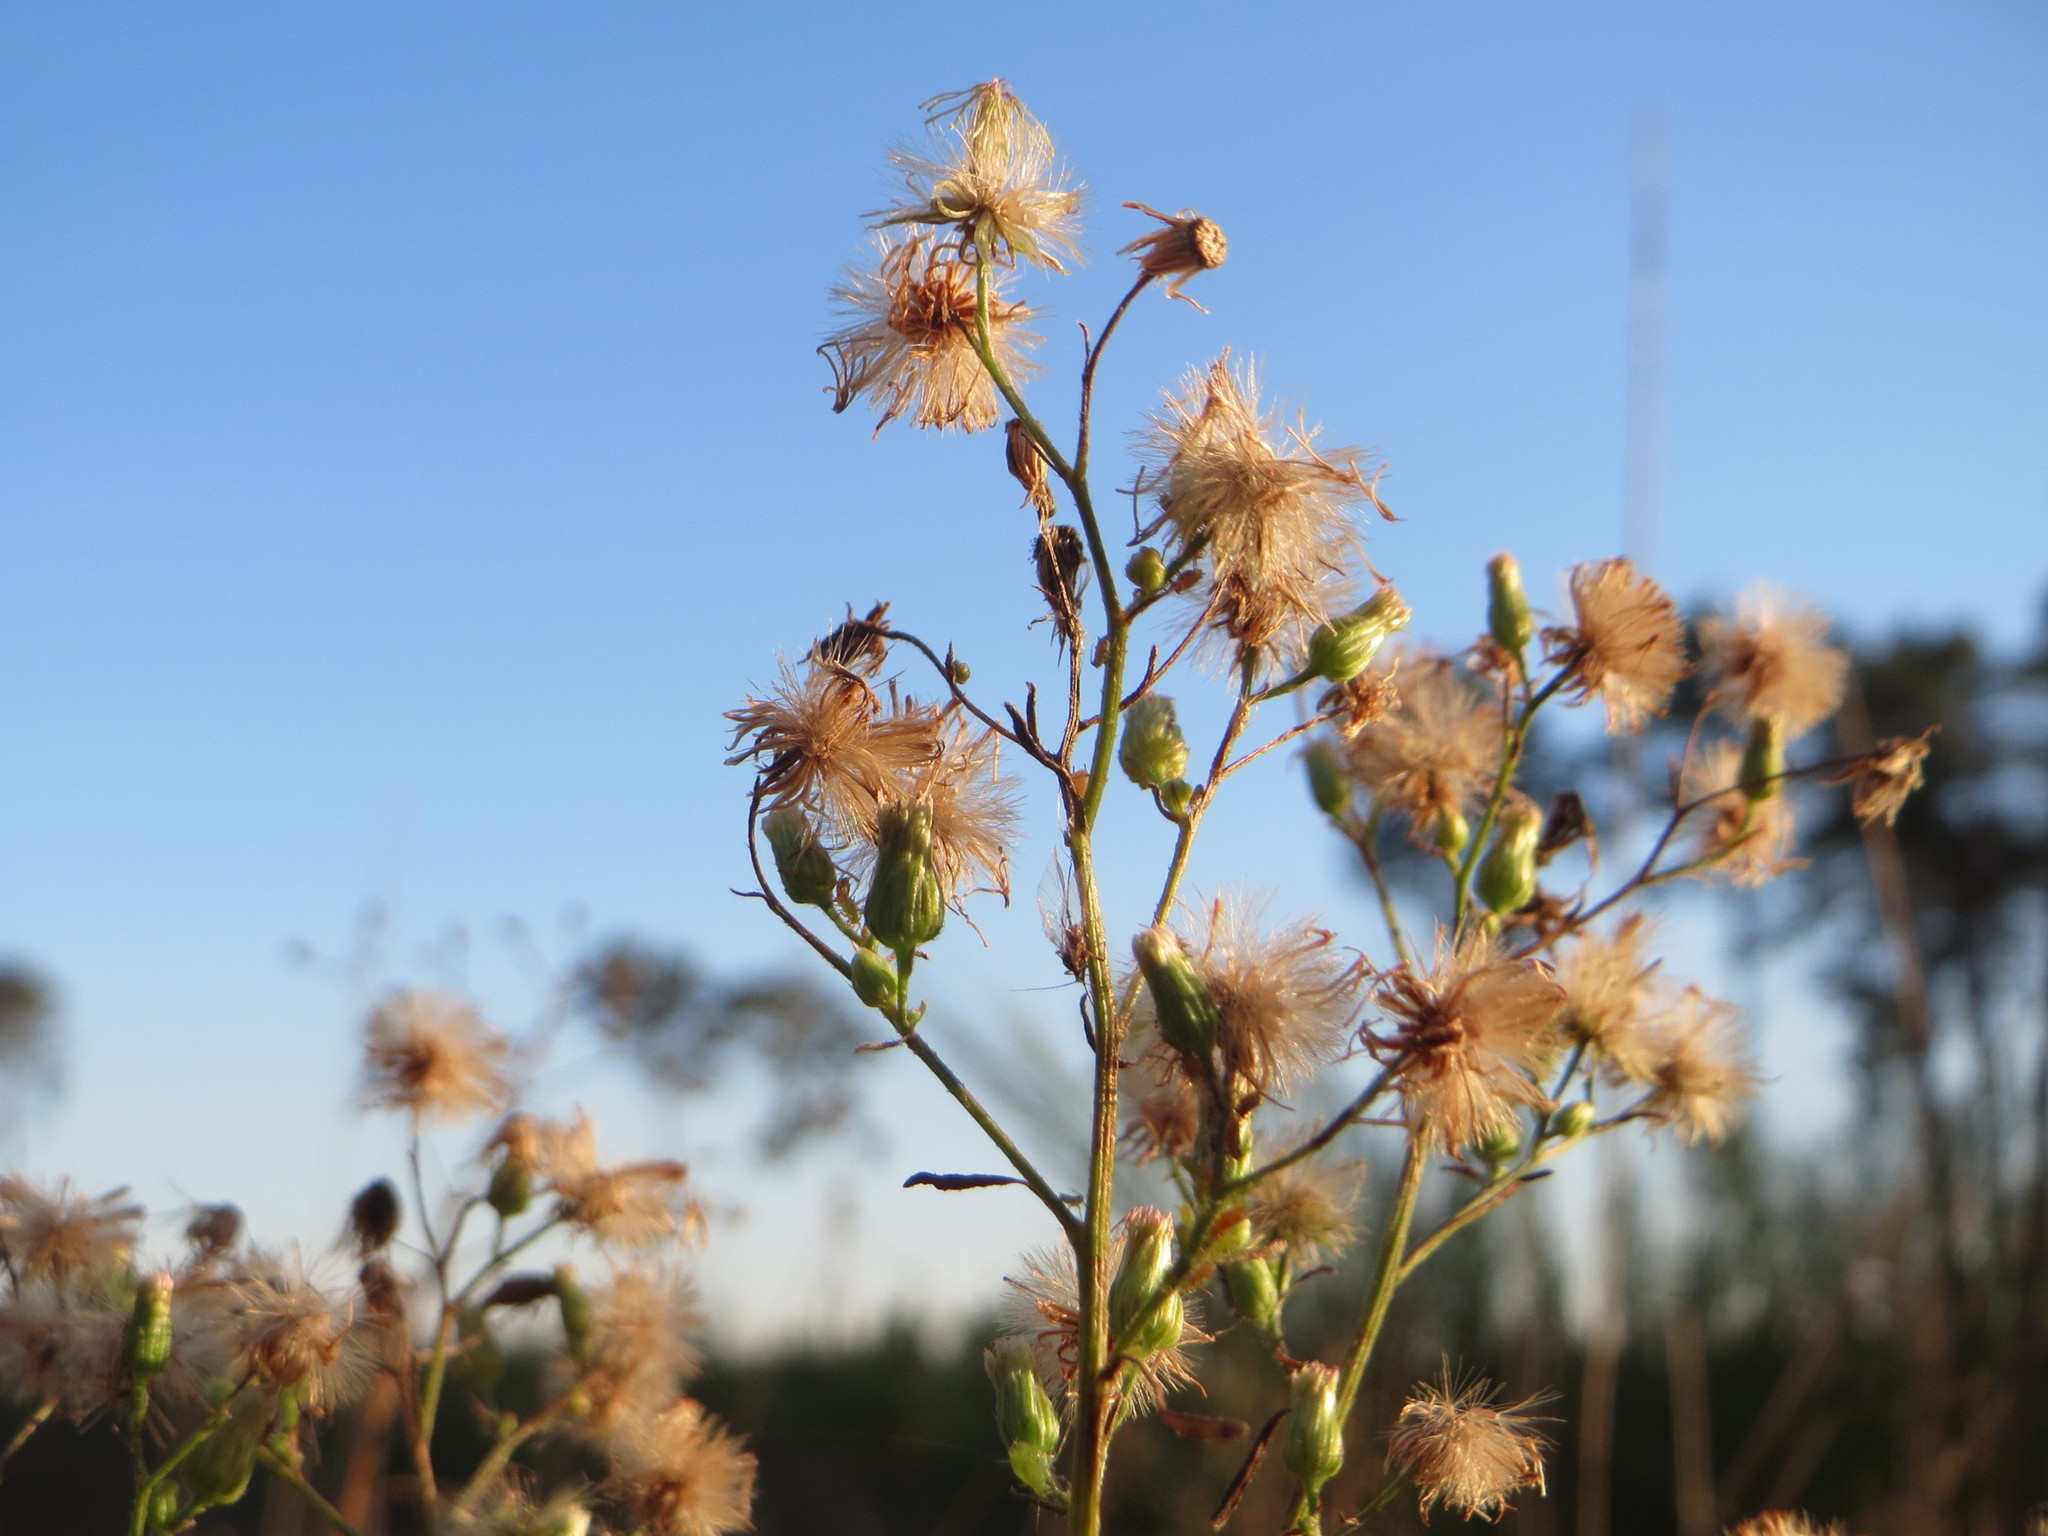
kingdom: Plantae
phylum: Tracheophyta
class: Magnoliopsida
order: Asterales
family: Asteraceae
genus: Erigeron
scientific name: Erigeron canadensis
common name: Canadian fleabane
